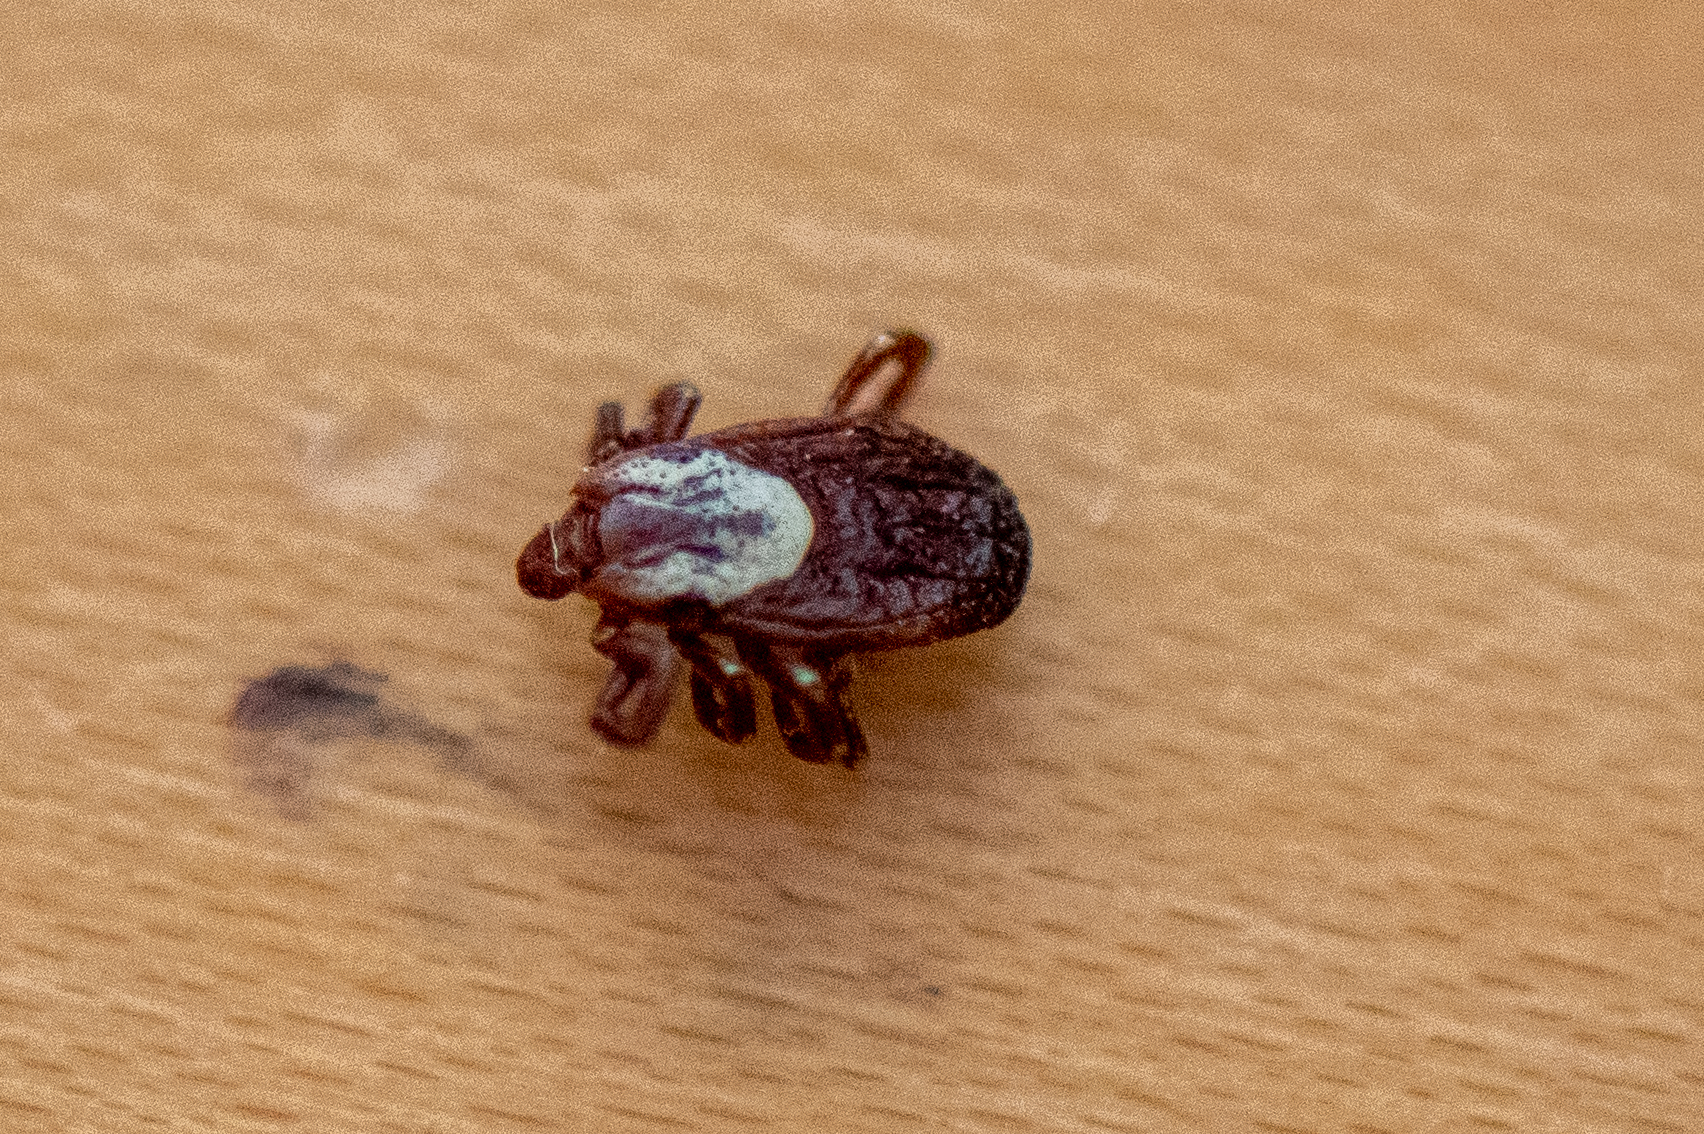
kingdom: Animalia
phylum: Arthropoda
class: Arachnida
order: Ixodida
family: Ixodidae
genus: Dermacentor
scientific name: Dermacentor variabilis
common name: American dog tick
